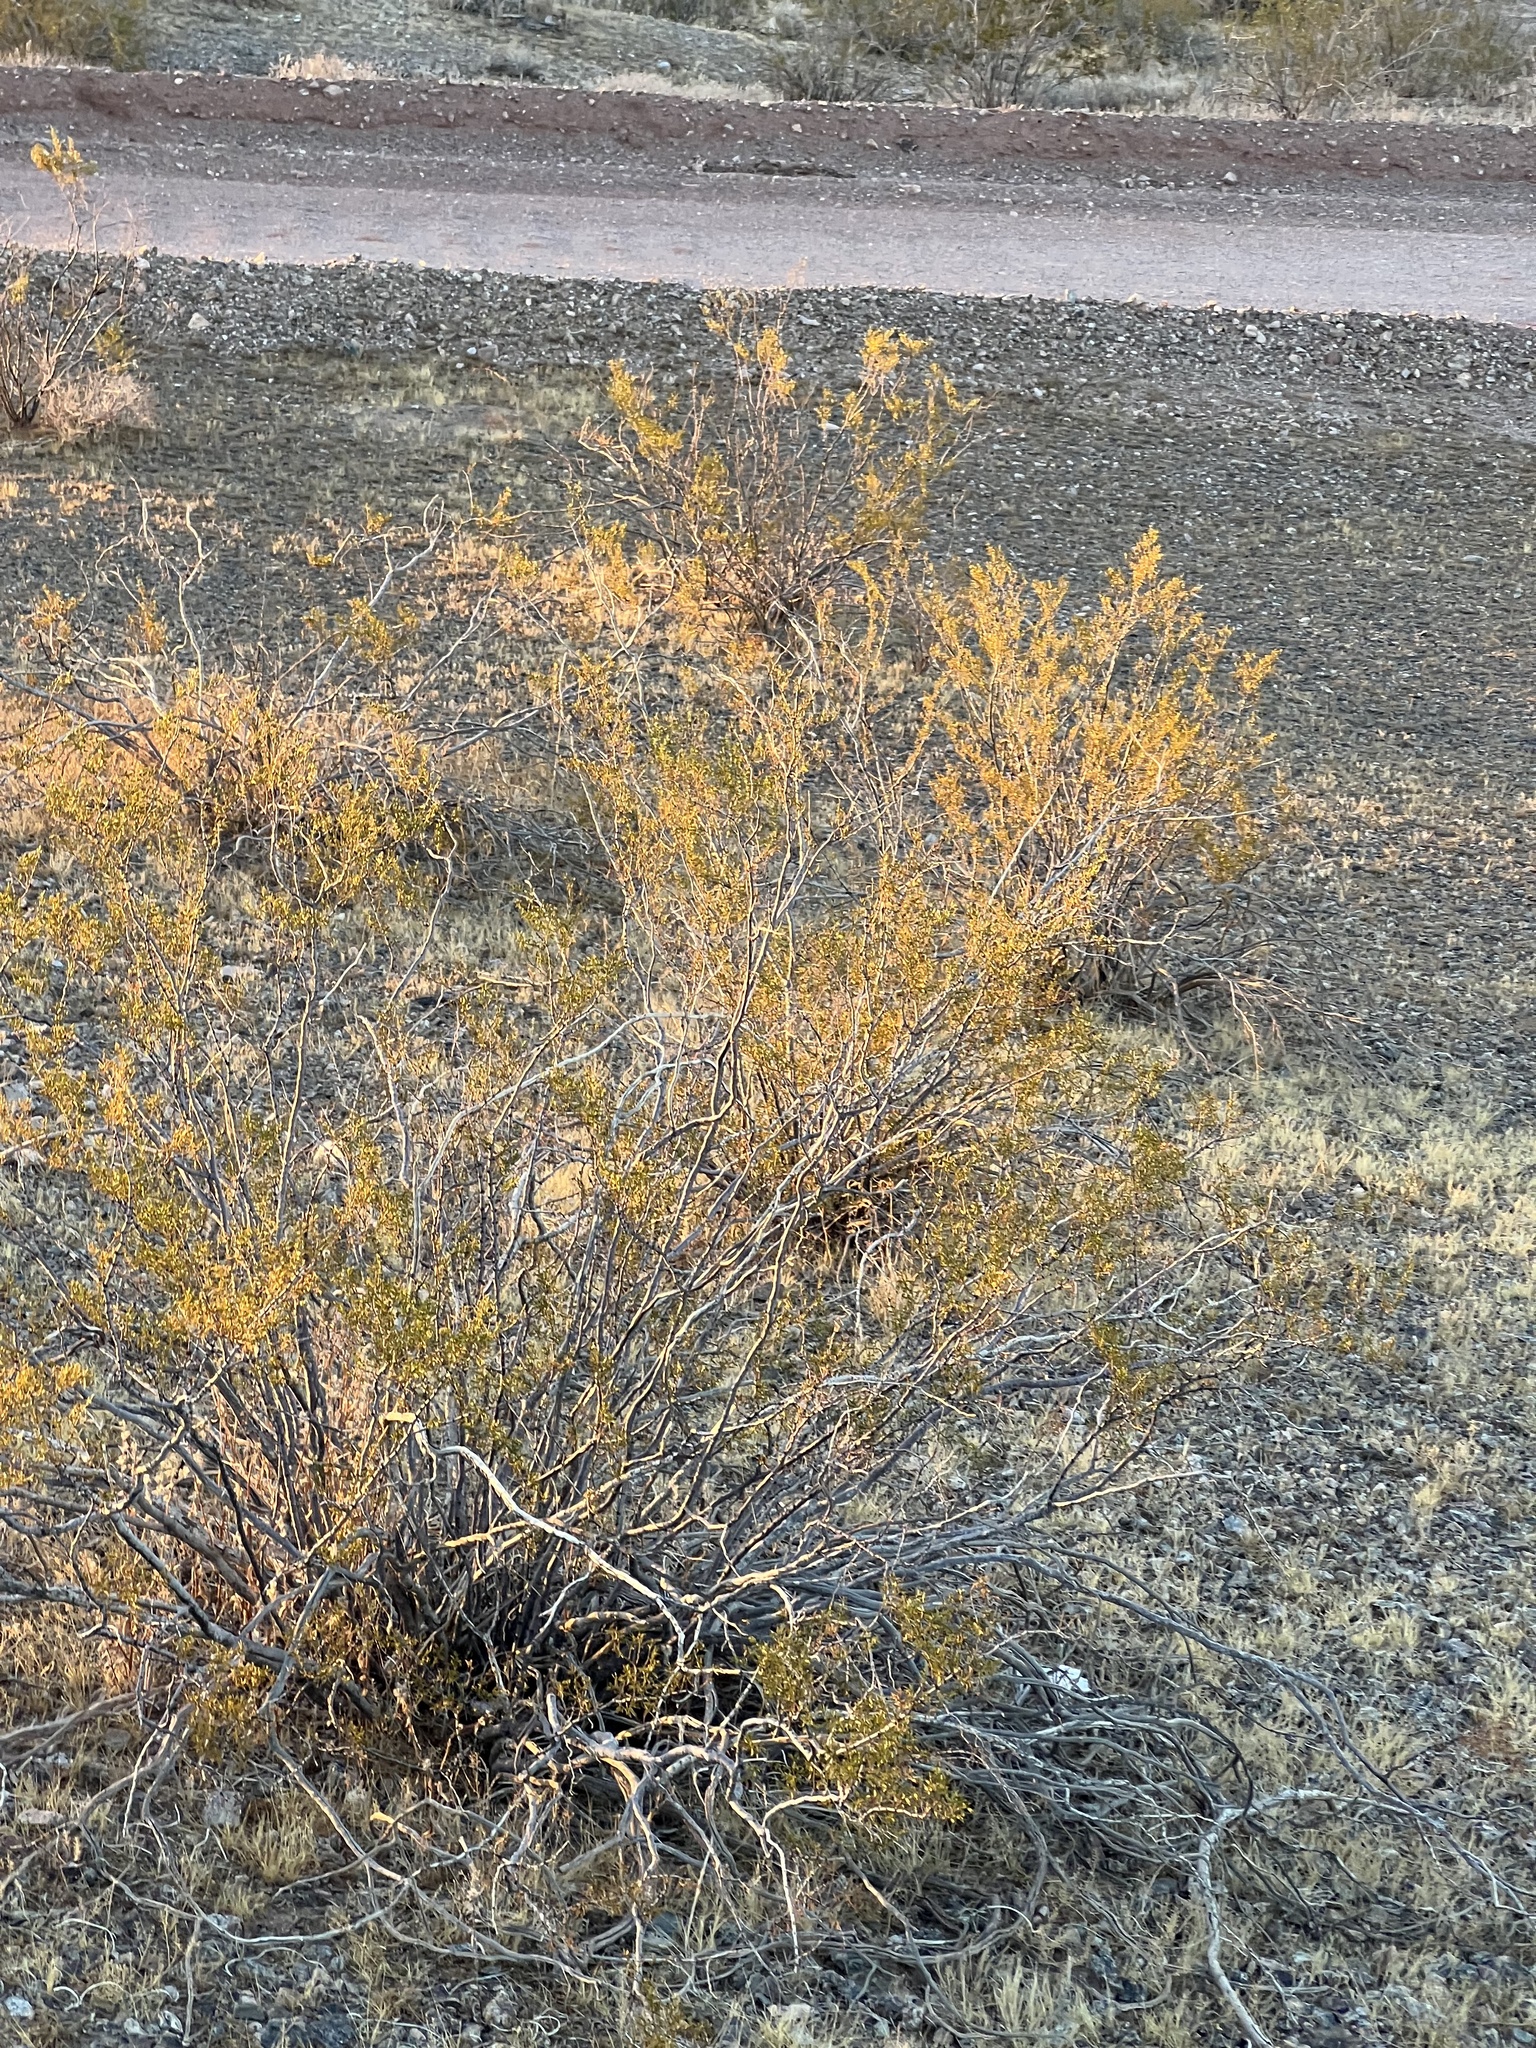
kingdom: Plantae
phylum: Tracheophyta
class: Magnoliopsida
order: Zygophyllales
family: Zygophyllaceae
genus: Larrea
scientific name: Larrea tridentata
